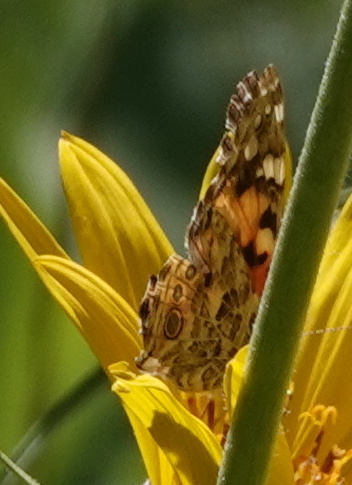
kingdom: Animalia
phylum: Arthropoda
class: Insecta
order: Lepidoptera
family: Nymphalidae
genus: Vanessa
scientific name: Vanessa cardui
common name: Painted lady
